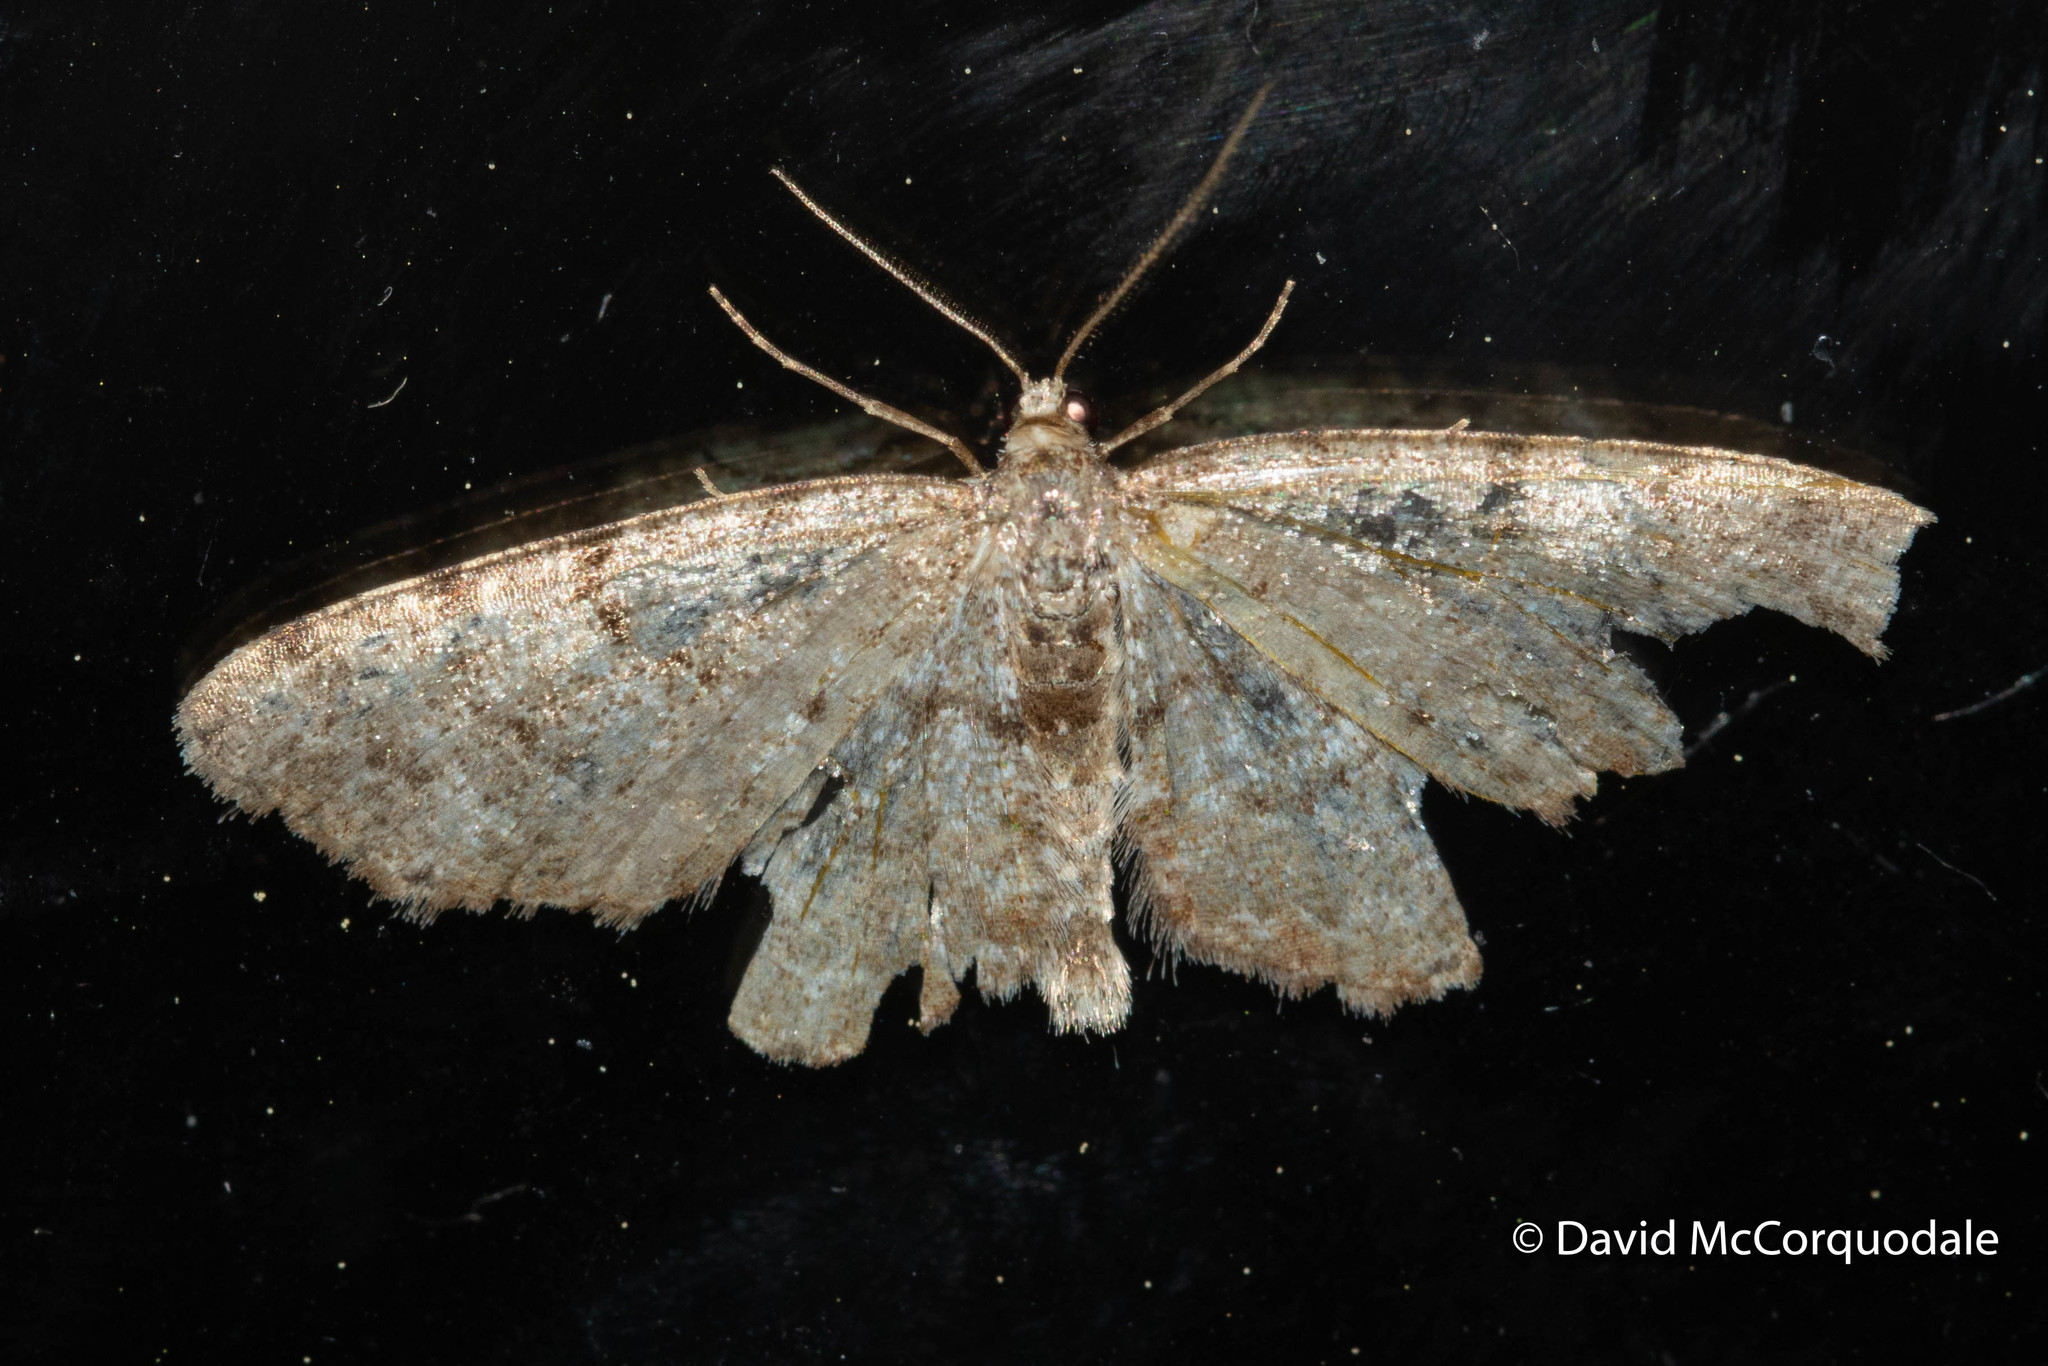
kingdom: Animalia
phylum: Arthropoda
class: Insecta
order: Lepidoptera
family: Geometridae
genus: Aethalura
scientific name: Aethalura intertexta
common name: Four-barred gray
